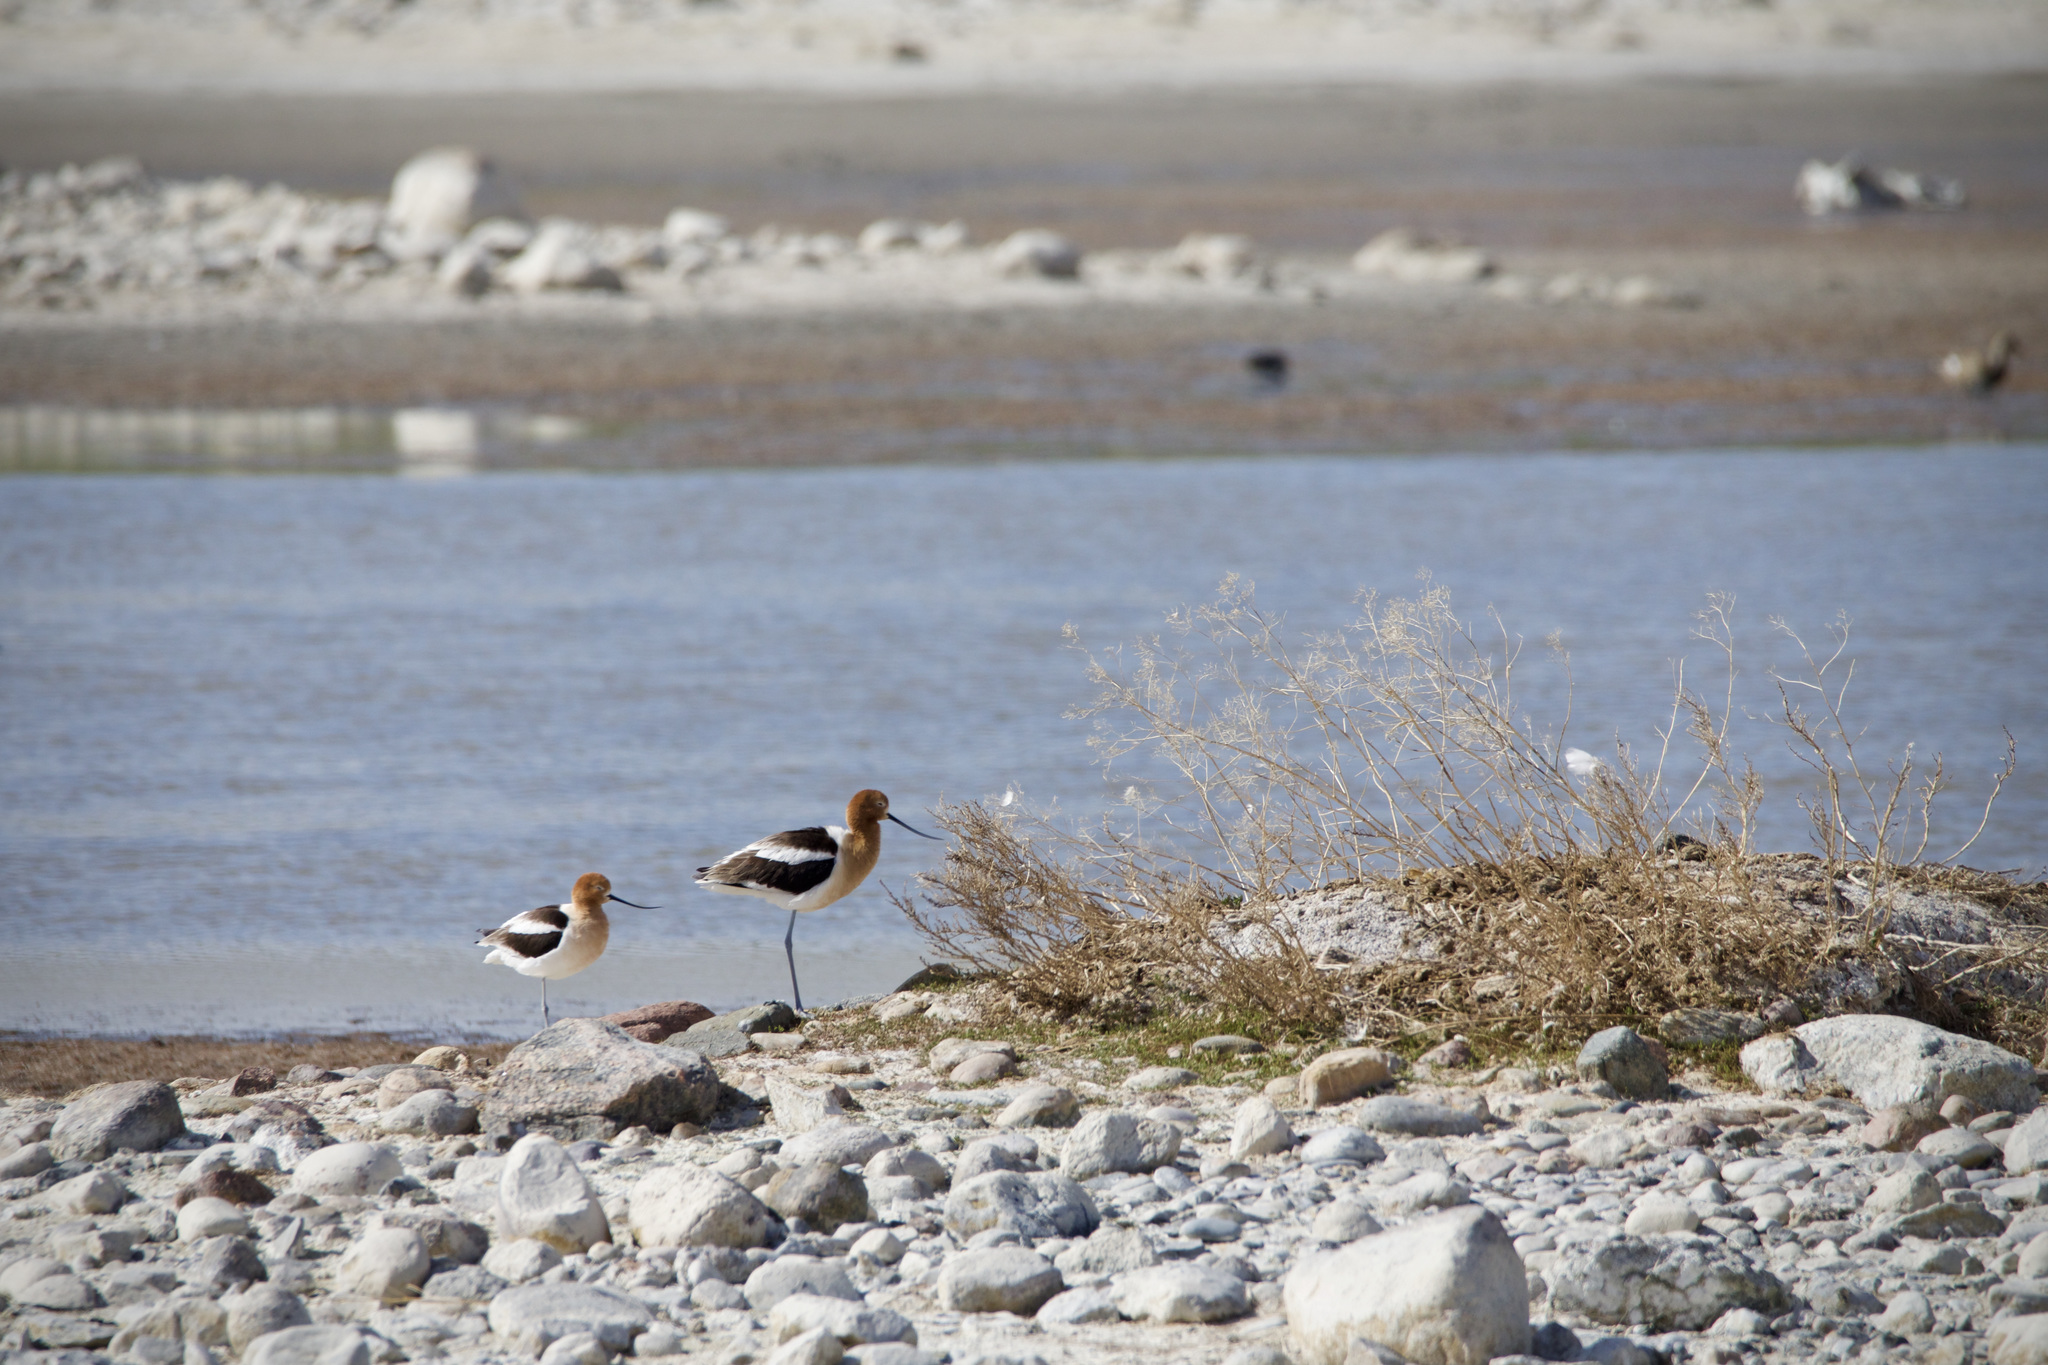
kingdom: Animalia
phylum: Chordata
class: Aves
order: Charadriiformes
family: Recurvirostridae
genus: Recurvirostra
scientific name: Recurvirostra americana
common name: American avocet
